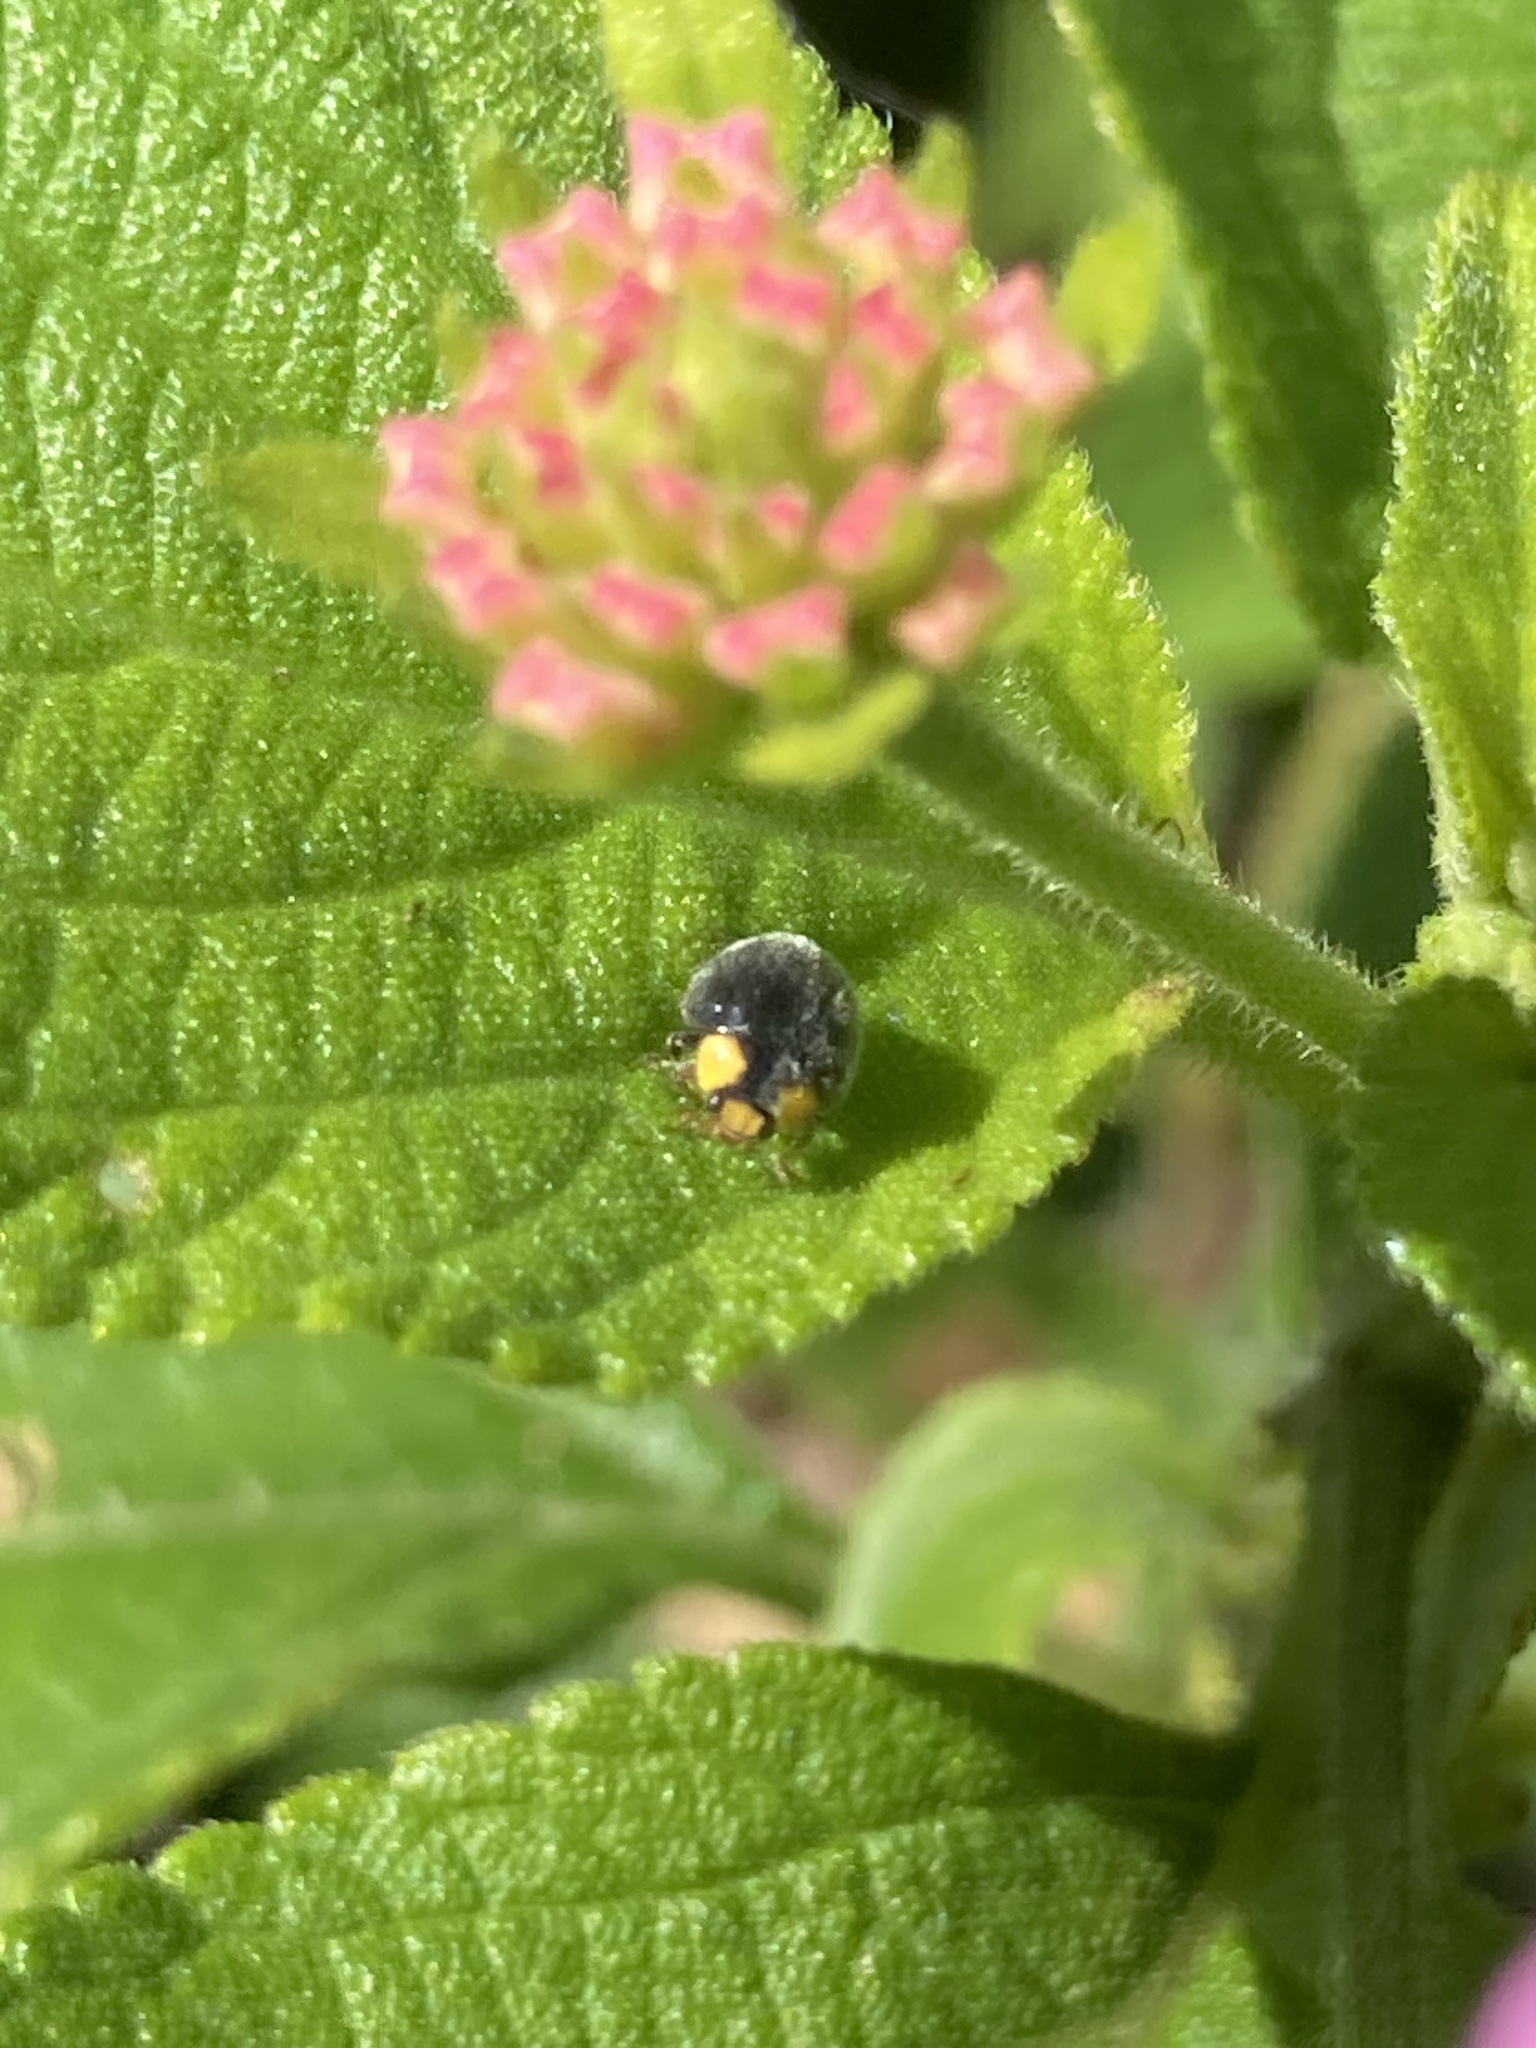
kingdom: Animalia
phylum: Arthropoda
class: Insecta
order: Coleoptera
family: Coccinellidae
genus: Scymnodes
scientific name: Scymnodes lividigaster
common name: Yellowshouldered lady beetle
